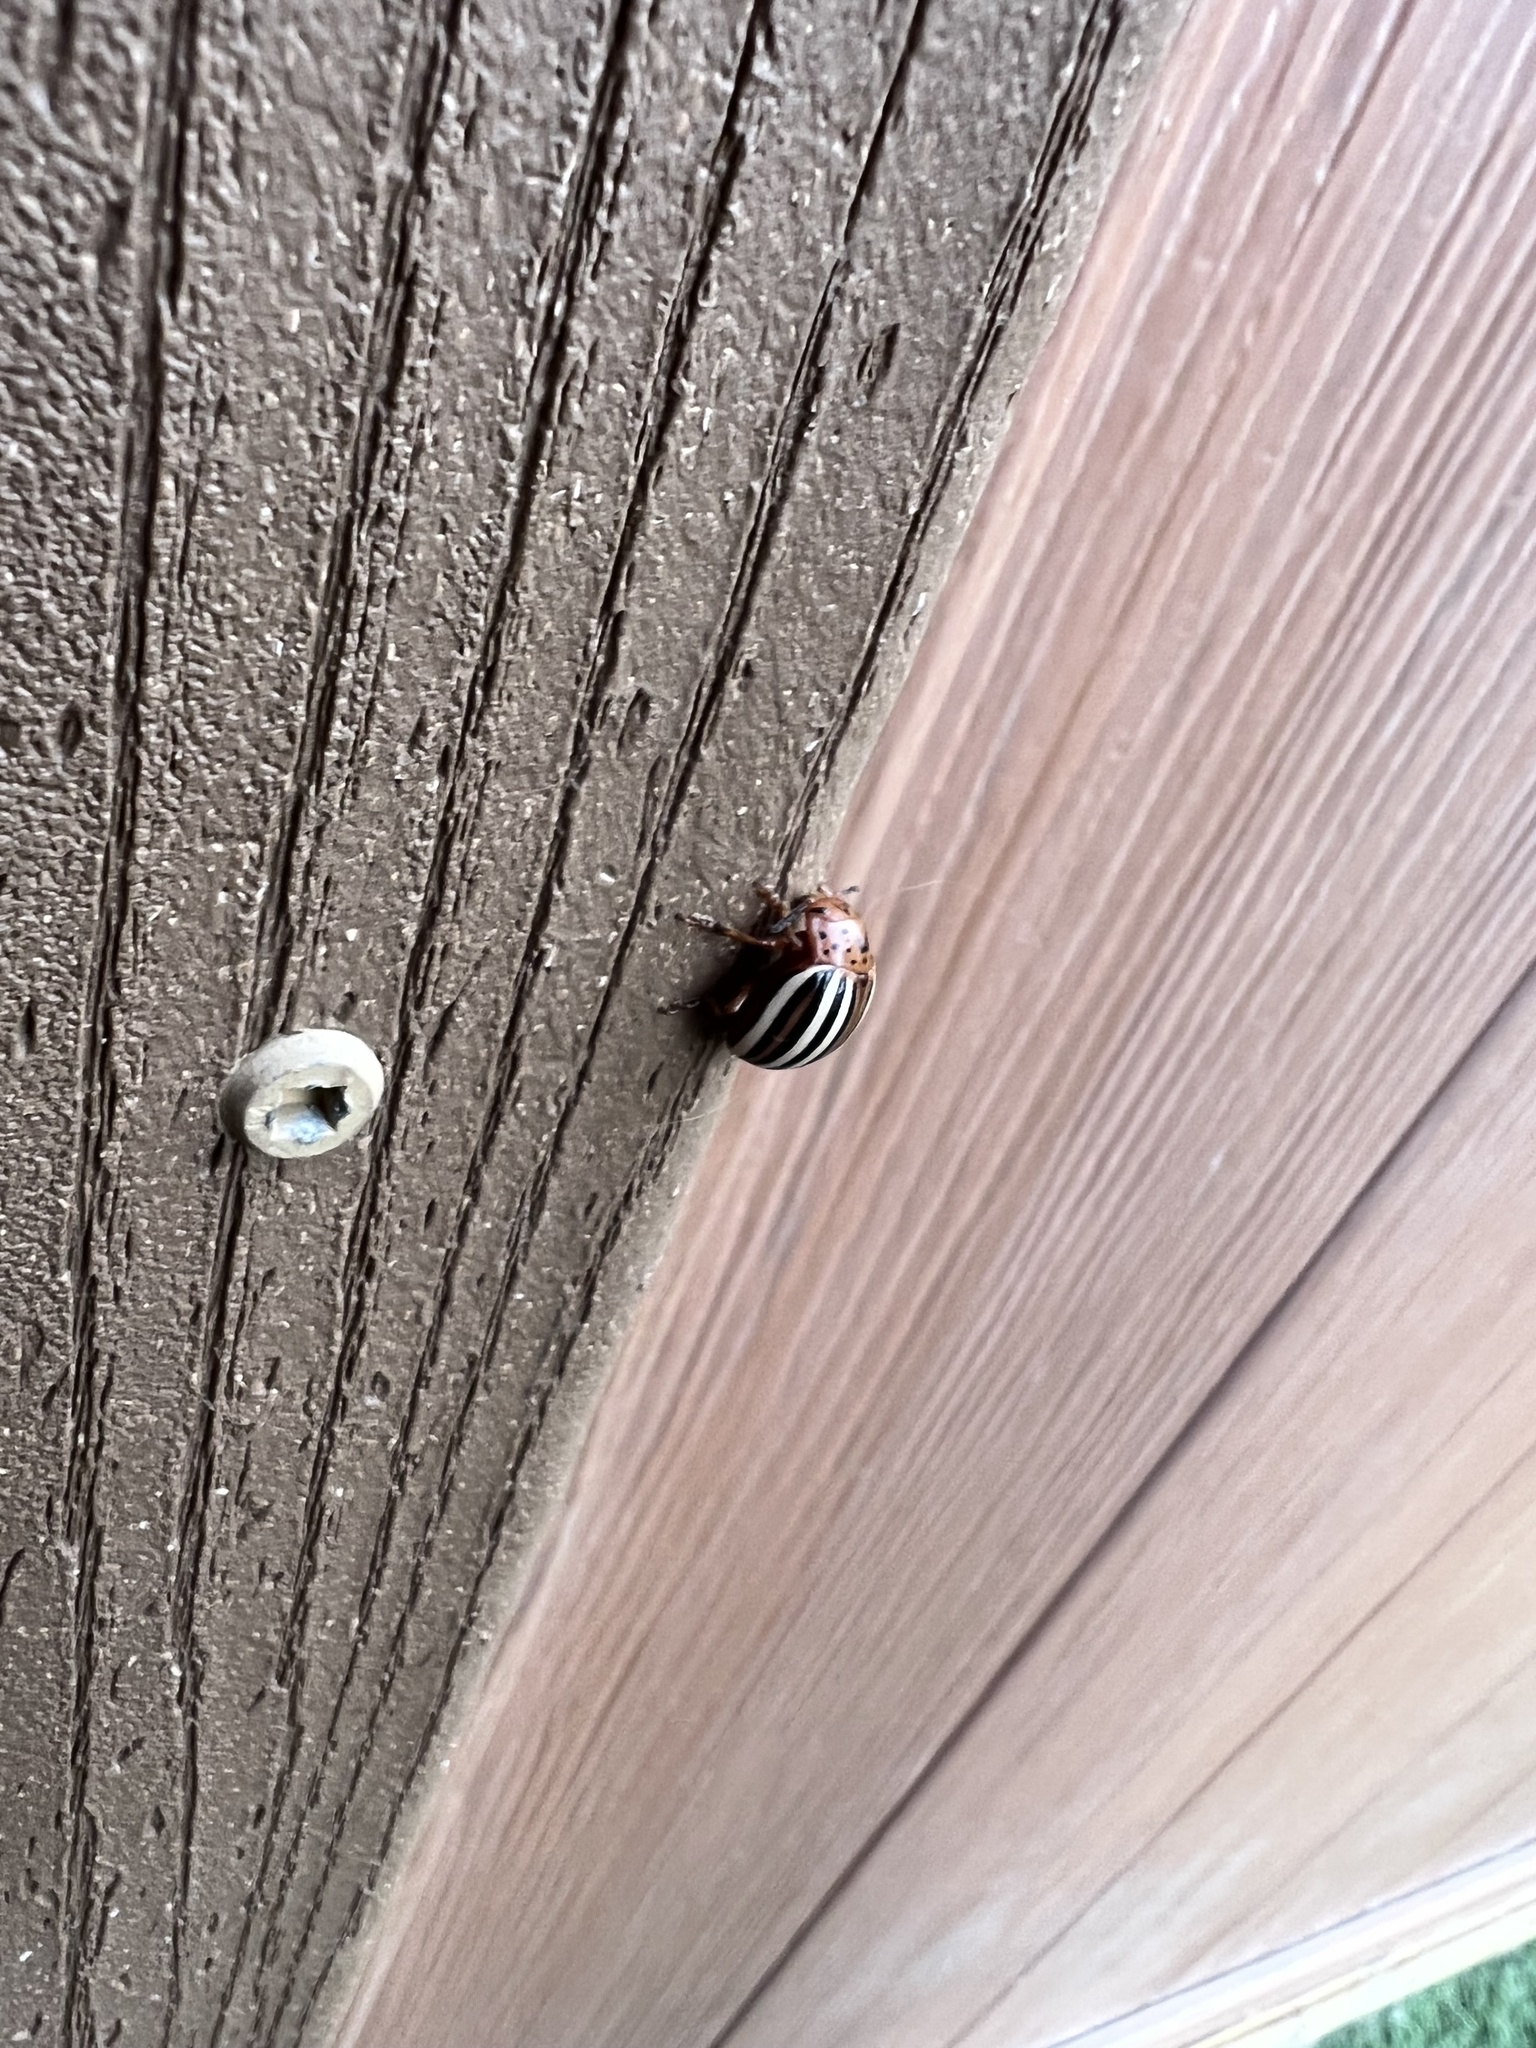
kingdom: Animalia
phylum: Arthropoda
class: Insecta
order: Coleoptera
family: Chrysomelidae
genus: Leptinotarsa
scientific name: Leptinotarsa juncta
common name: False potato beetle
